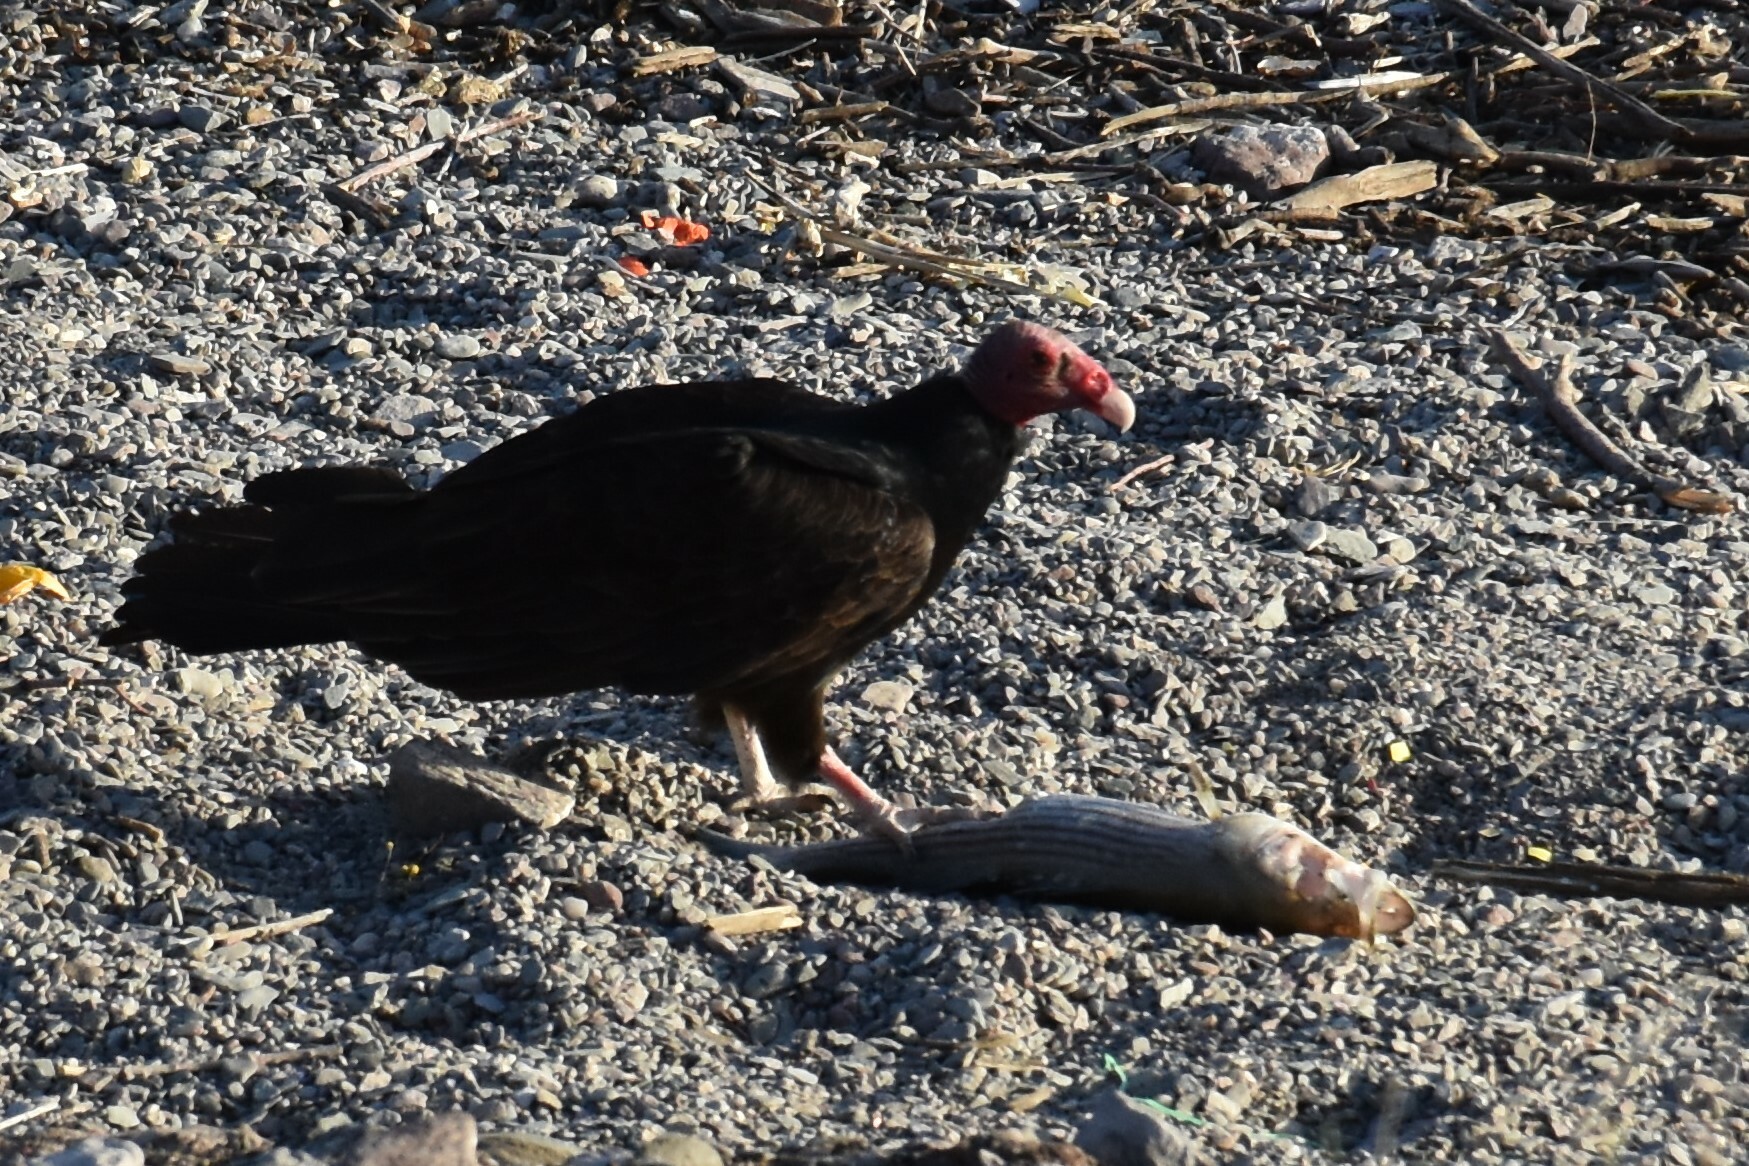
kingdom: Animalia
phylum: Chordata
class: Aves
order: Accipitriformes
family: Cathartidae
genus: Cathartes
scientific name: Cathartes aura
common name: Turkey vulture
